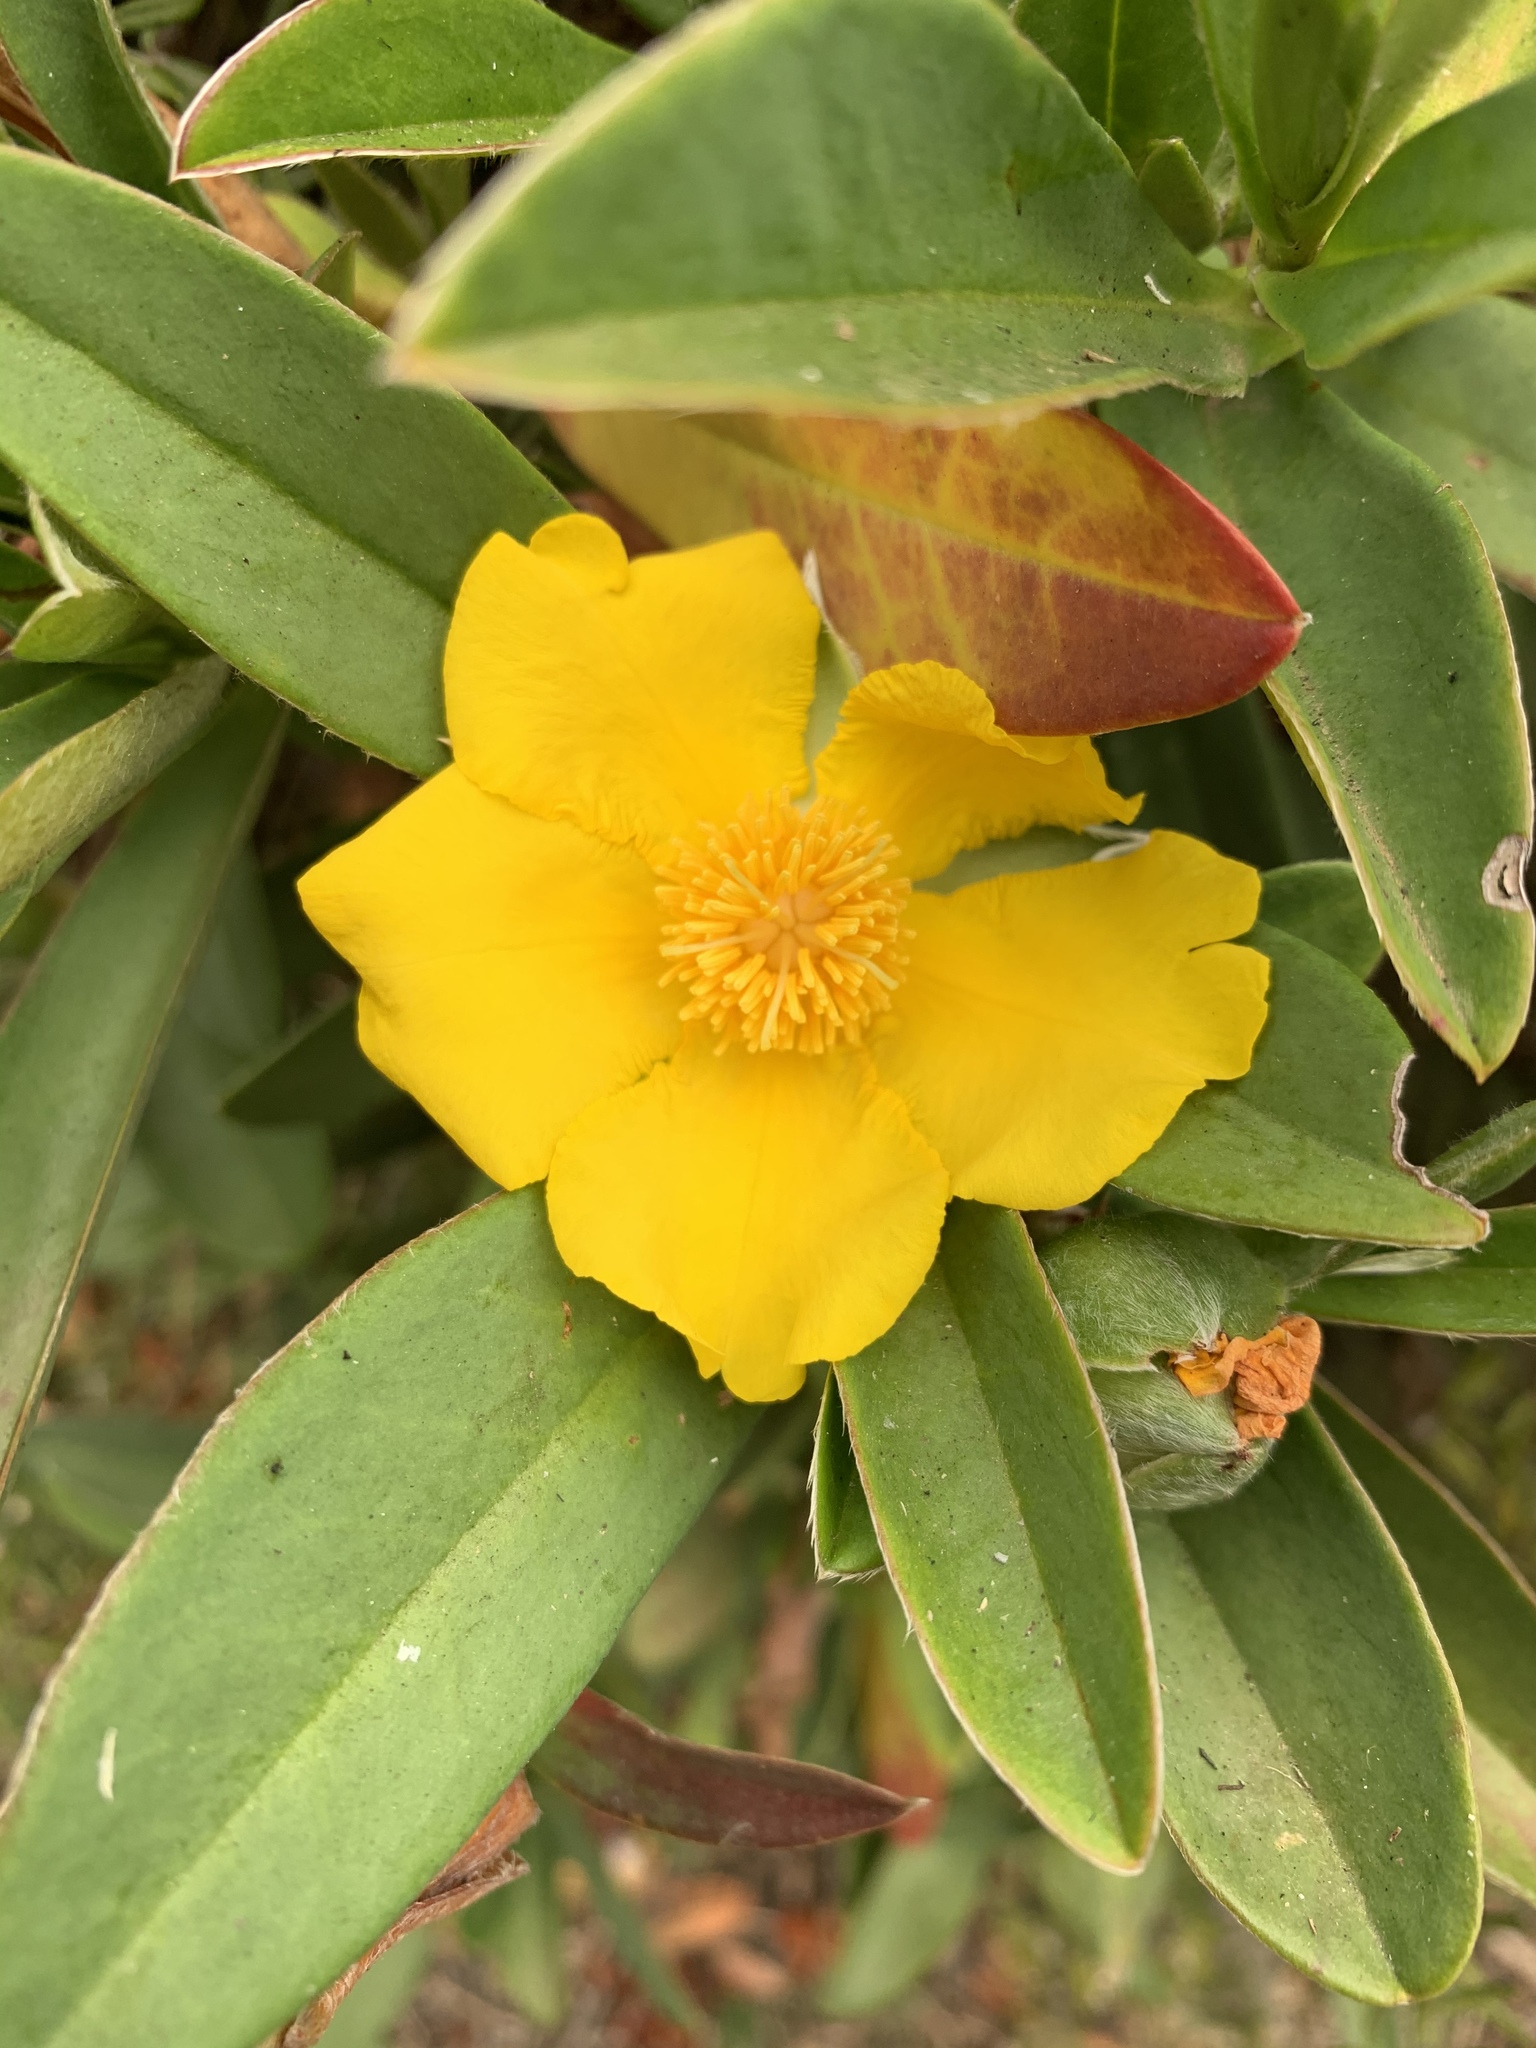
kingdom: Plantae
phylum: Tracheophyta
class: Magnoliopsida
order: Dilleniales
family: Dilleniaceae
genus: Hibbertia
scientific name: Hibbertia scandens
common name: Climbing guinea-flower
